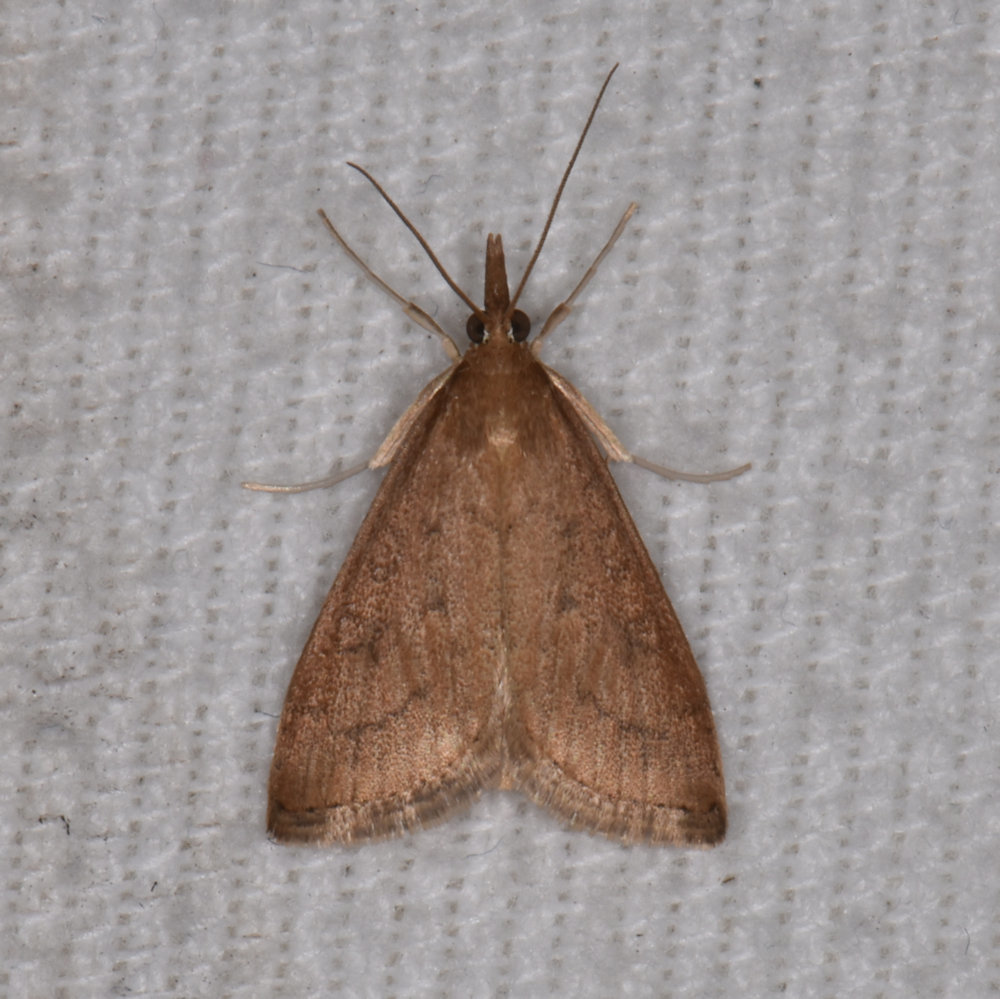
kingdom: Animalia
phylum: Arthropoda
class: Insecta
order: Lepidoptera
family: Crambidae
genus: Udea
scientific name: Udea rubigalis
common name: Celery leaftier moth
